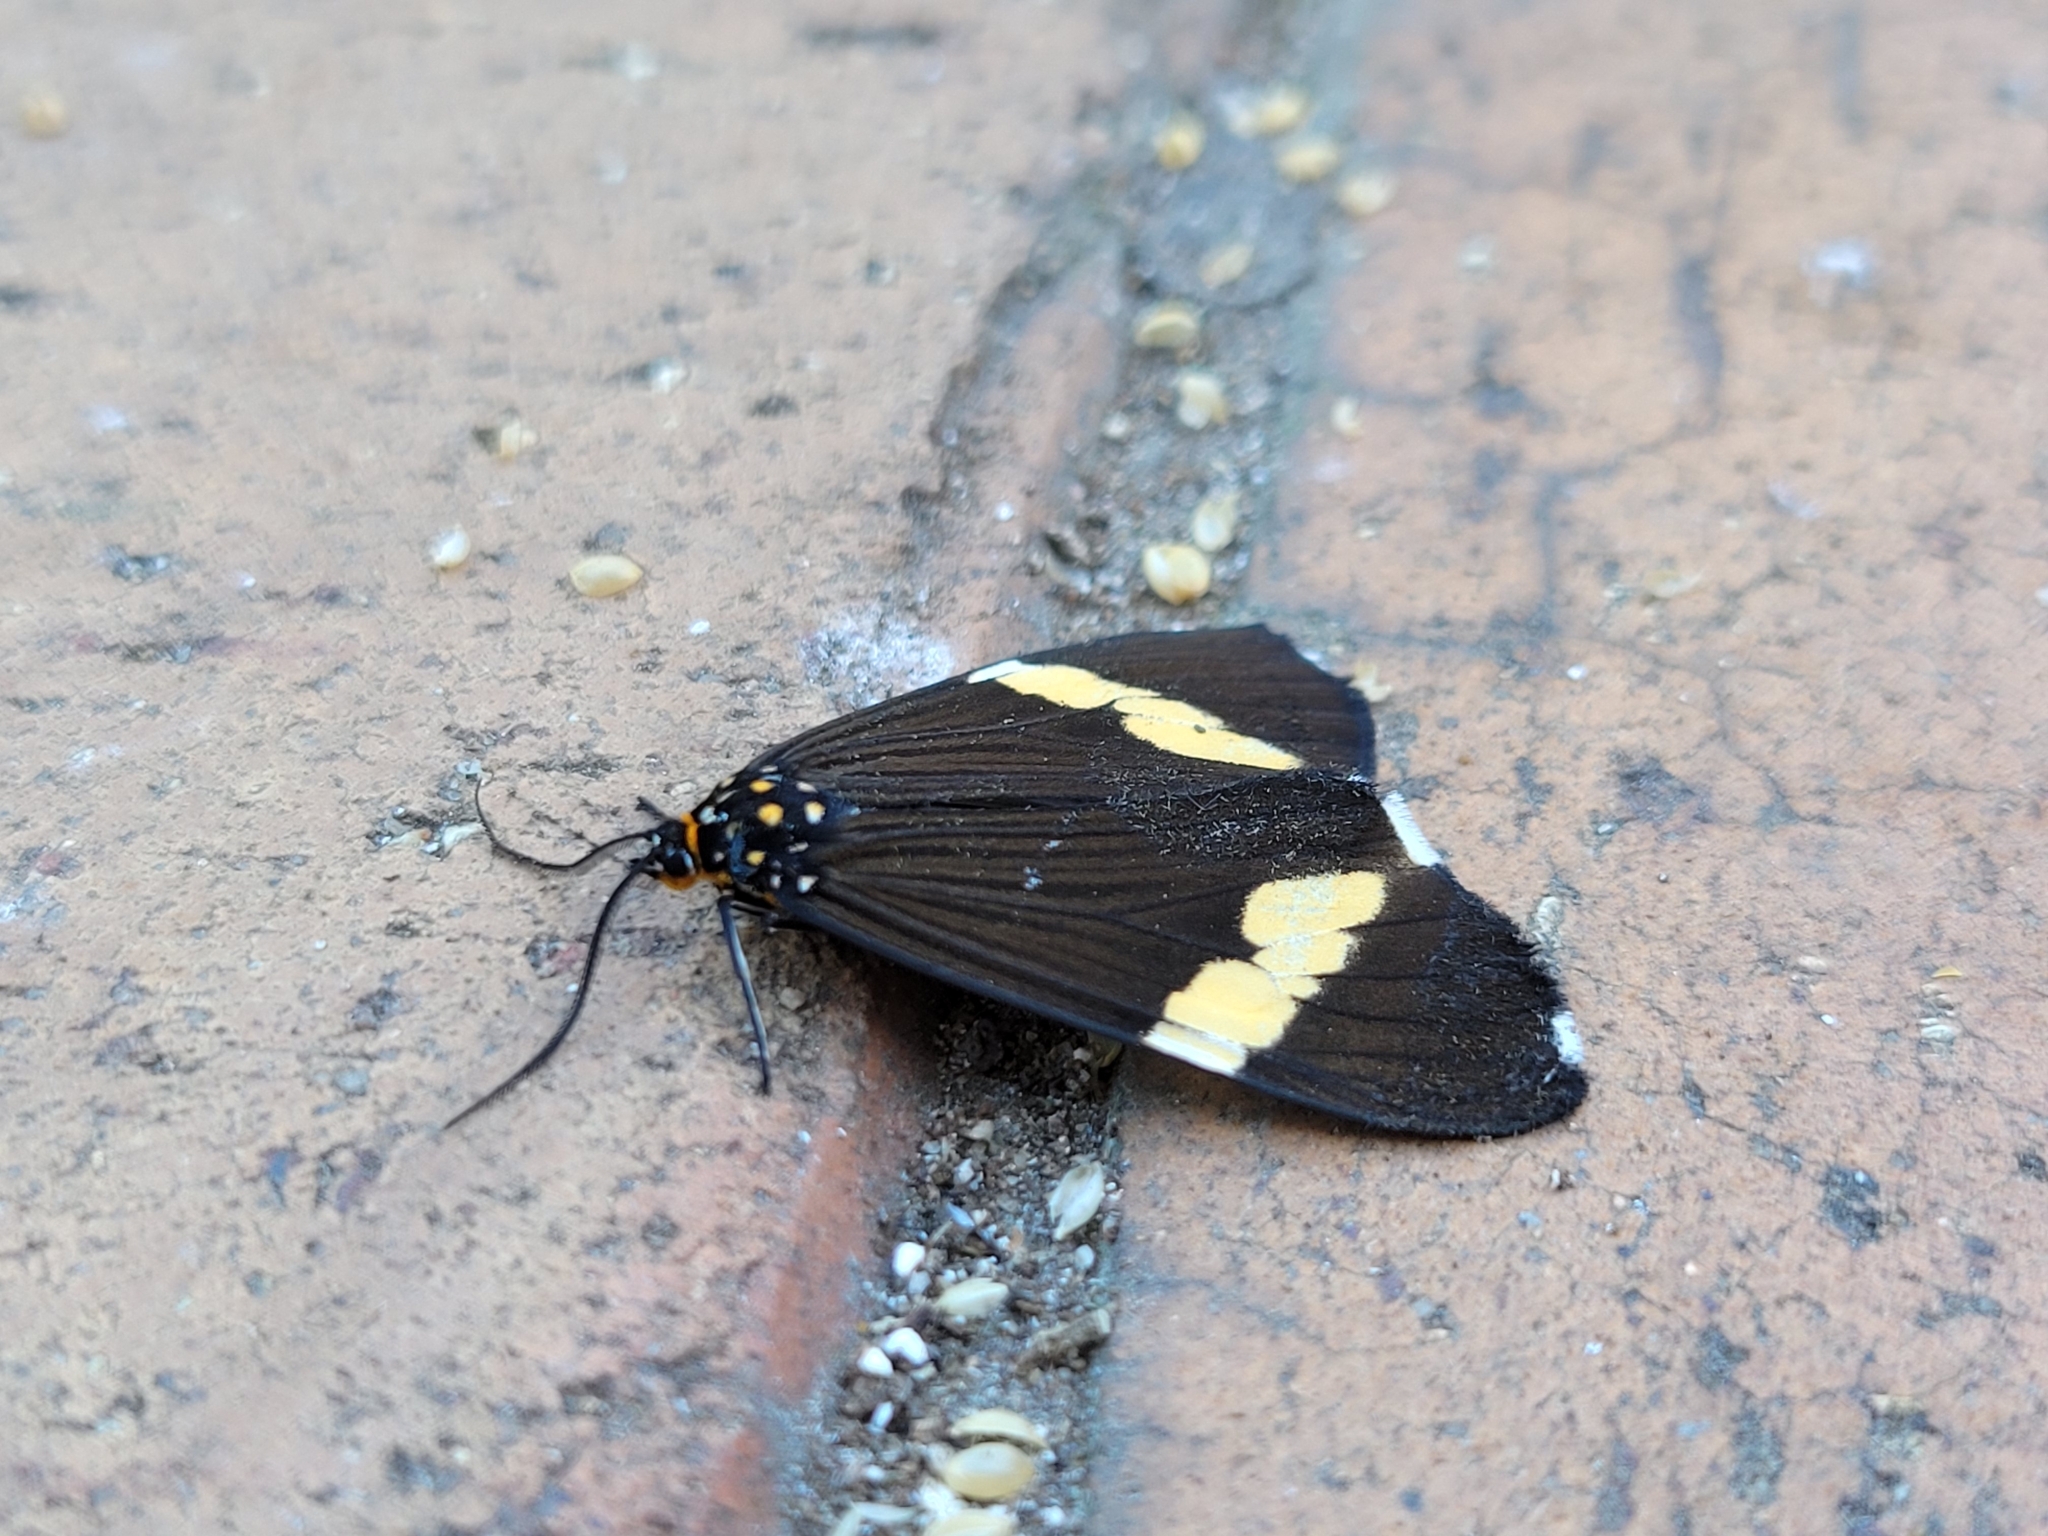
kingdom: Animalia
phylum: Arthropoda
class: Insecta
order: Lepidoptera
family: Erebidae
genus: Nyctemera
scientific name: Nyctemera
